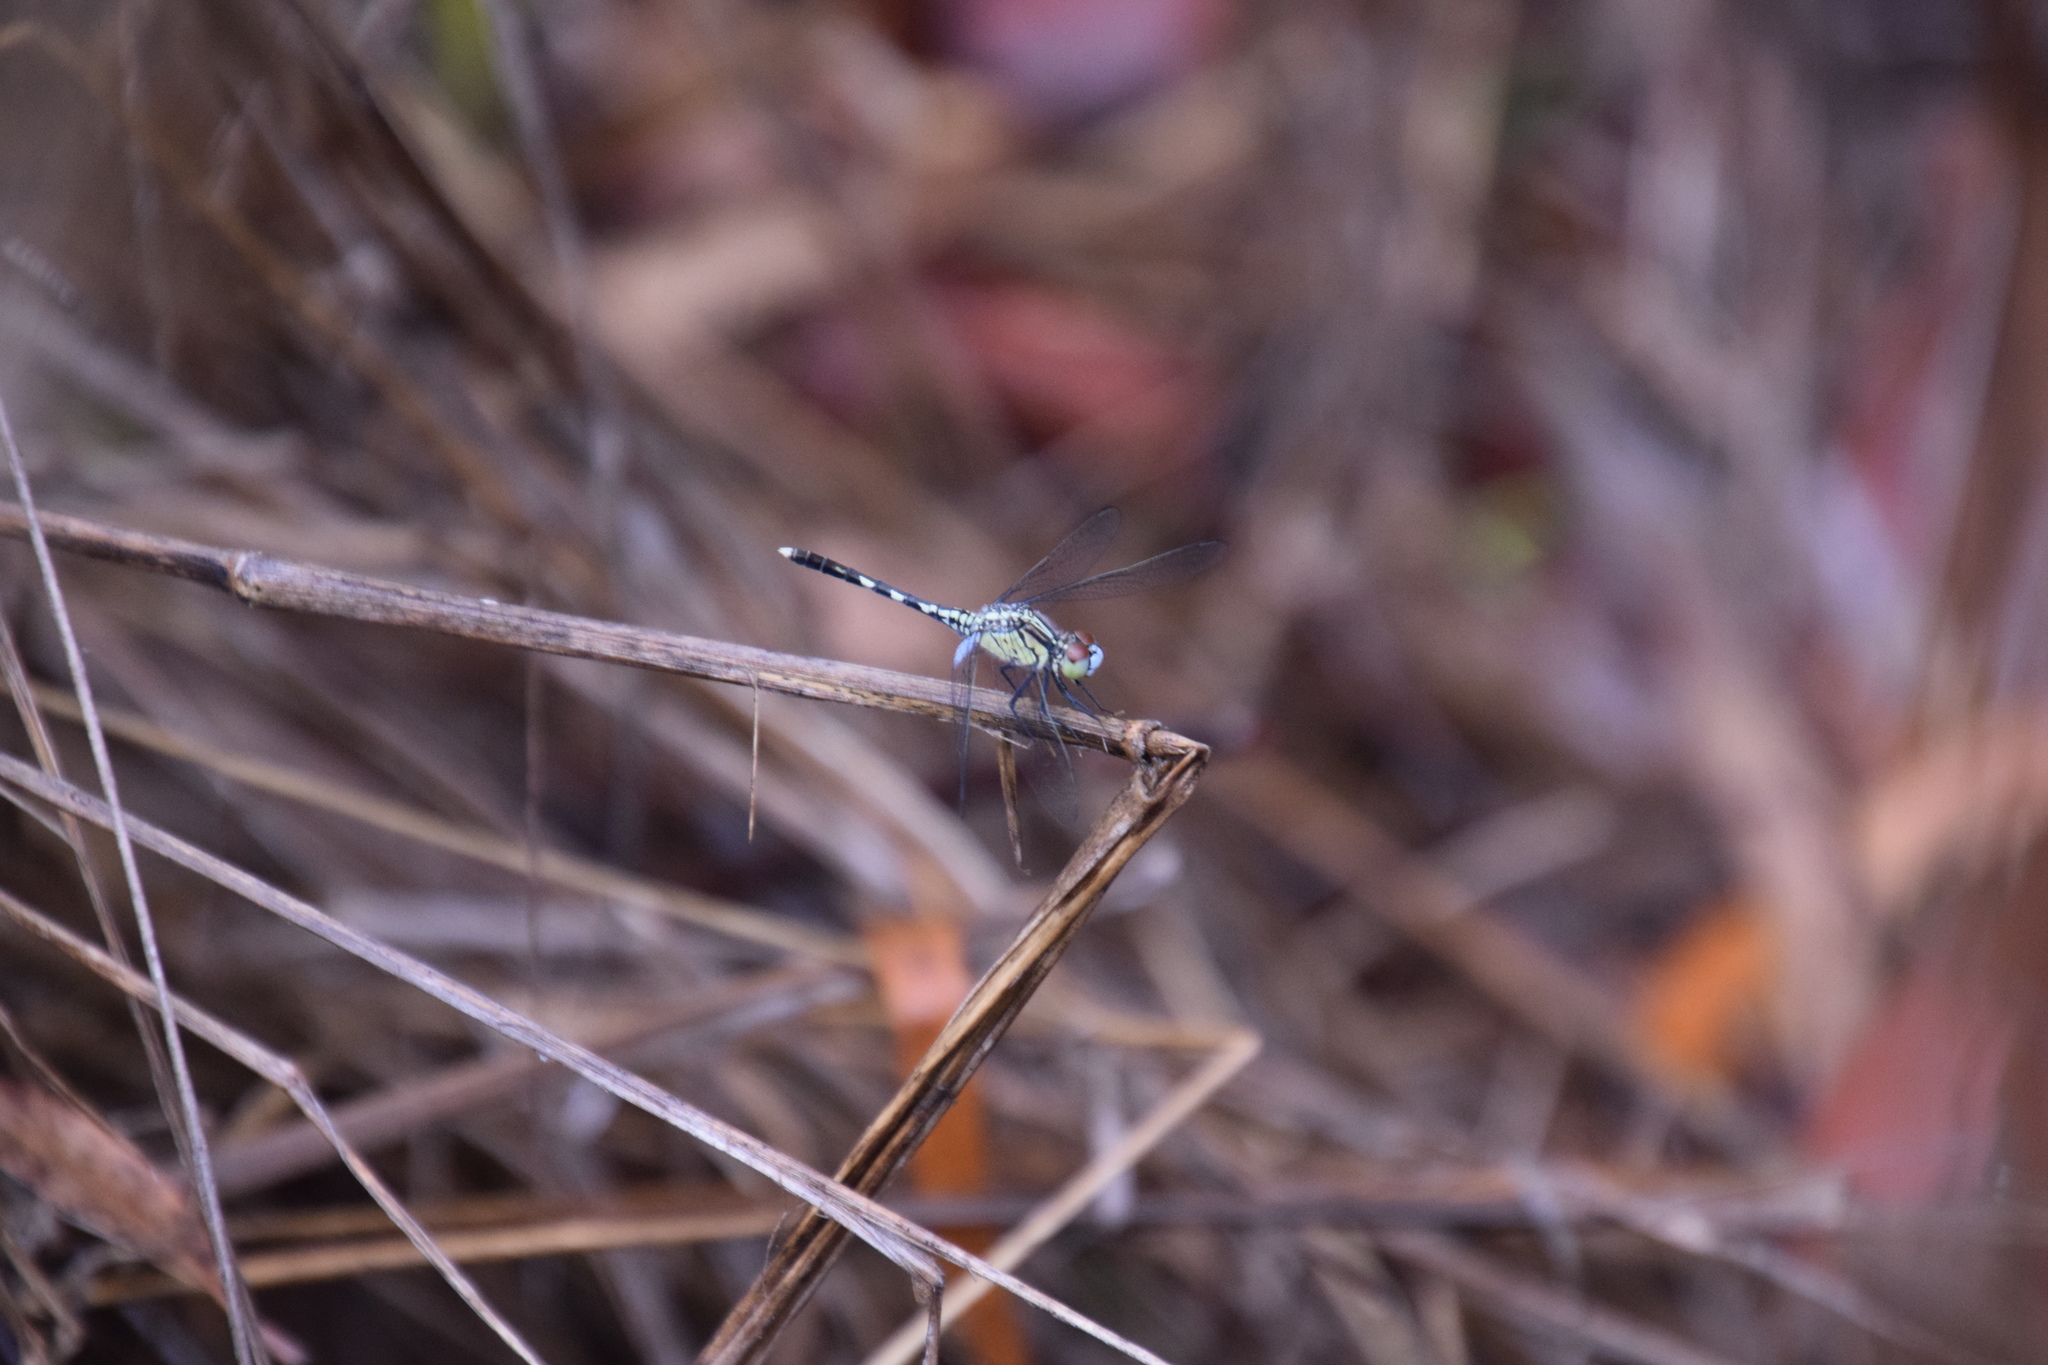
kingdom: Animalia
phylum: Arthropoda
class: Insecta
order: Odonata
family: Libellulidae
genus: Diplacodes
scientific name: Diplacodes trivialis
